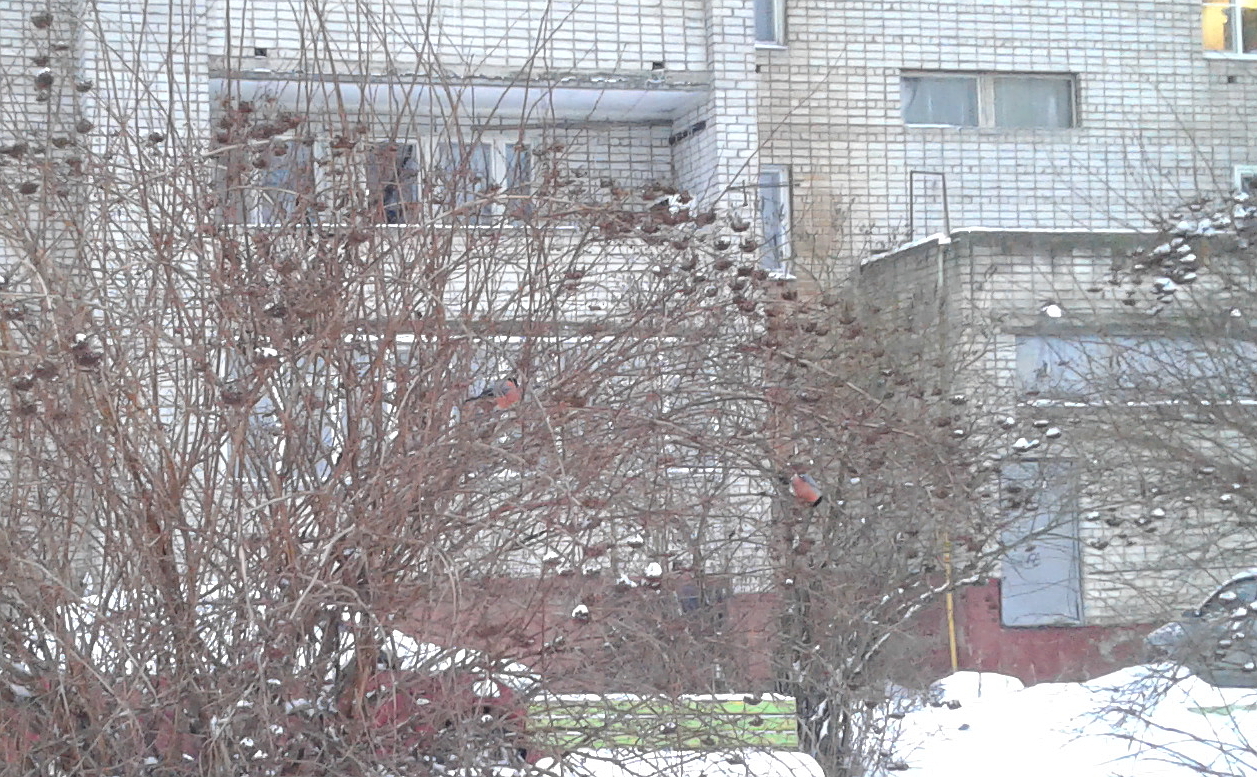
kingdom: Animalia
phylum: Chordata
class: Aves
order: Passeriformes
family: Fringillidae
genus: Pyrrhula
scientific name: Pyrrhula pyrrhula
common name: Eurasian bullfinch
